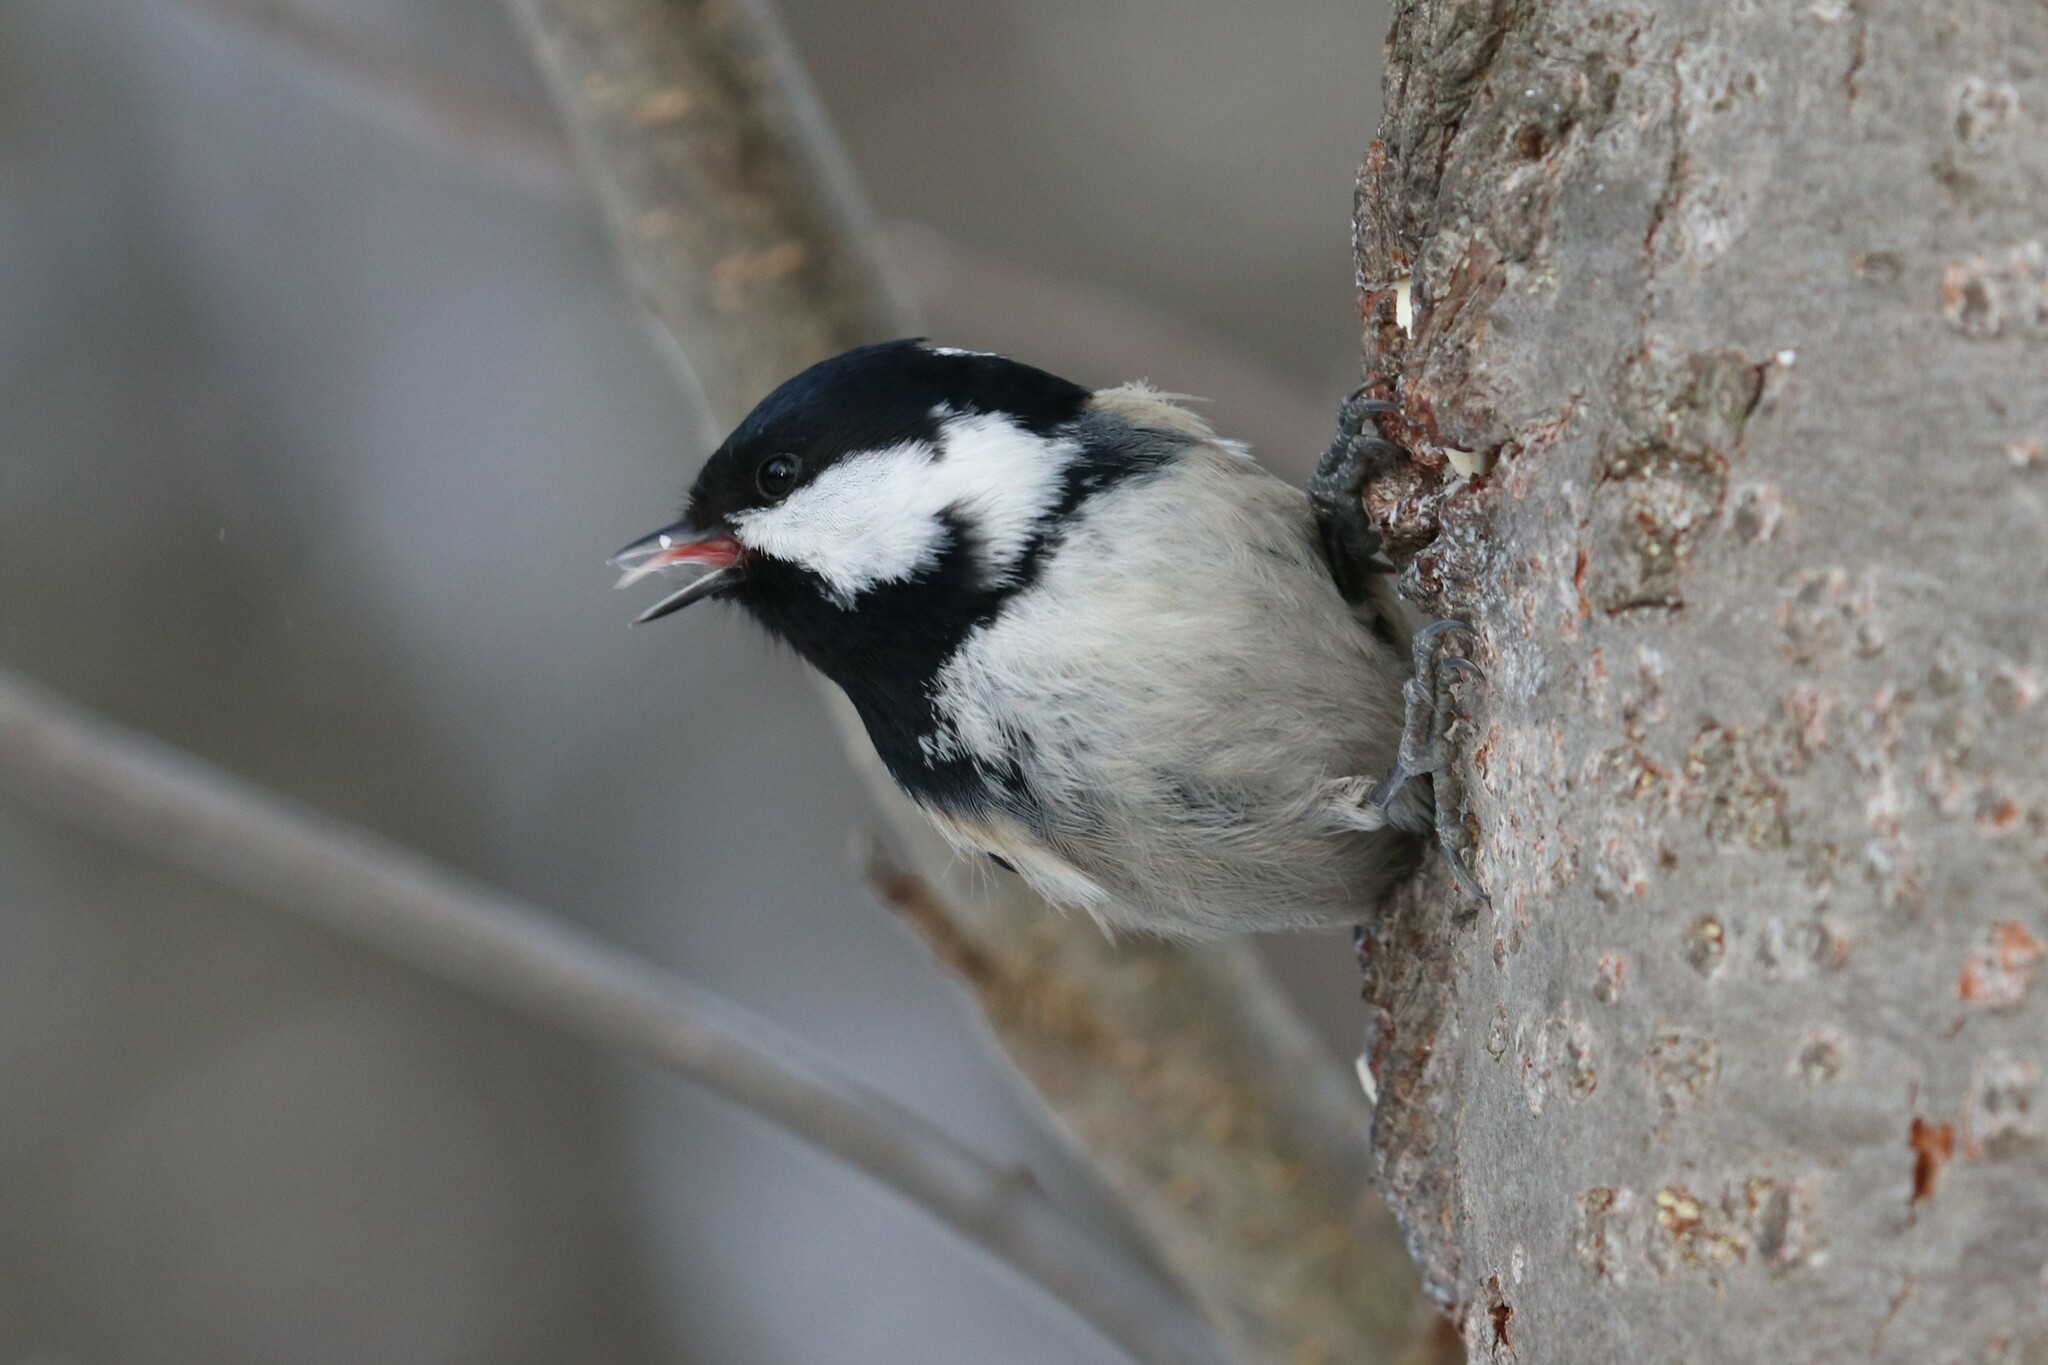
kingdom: Animalia
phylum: Chordata
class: Aves
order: Passeriformes
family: Paridae
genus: Periparus
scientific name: Periparus ater
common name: Coal tit
